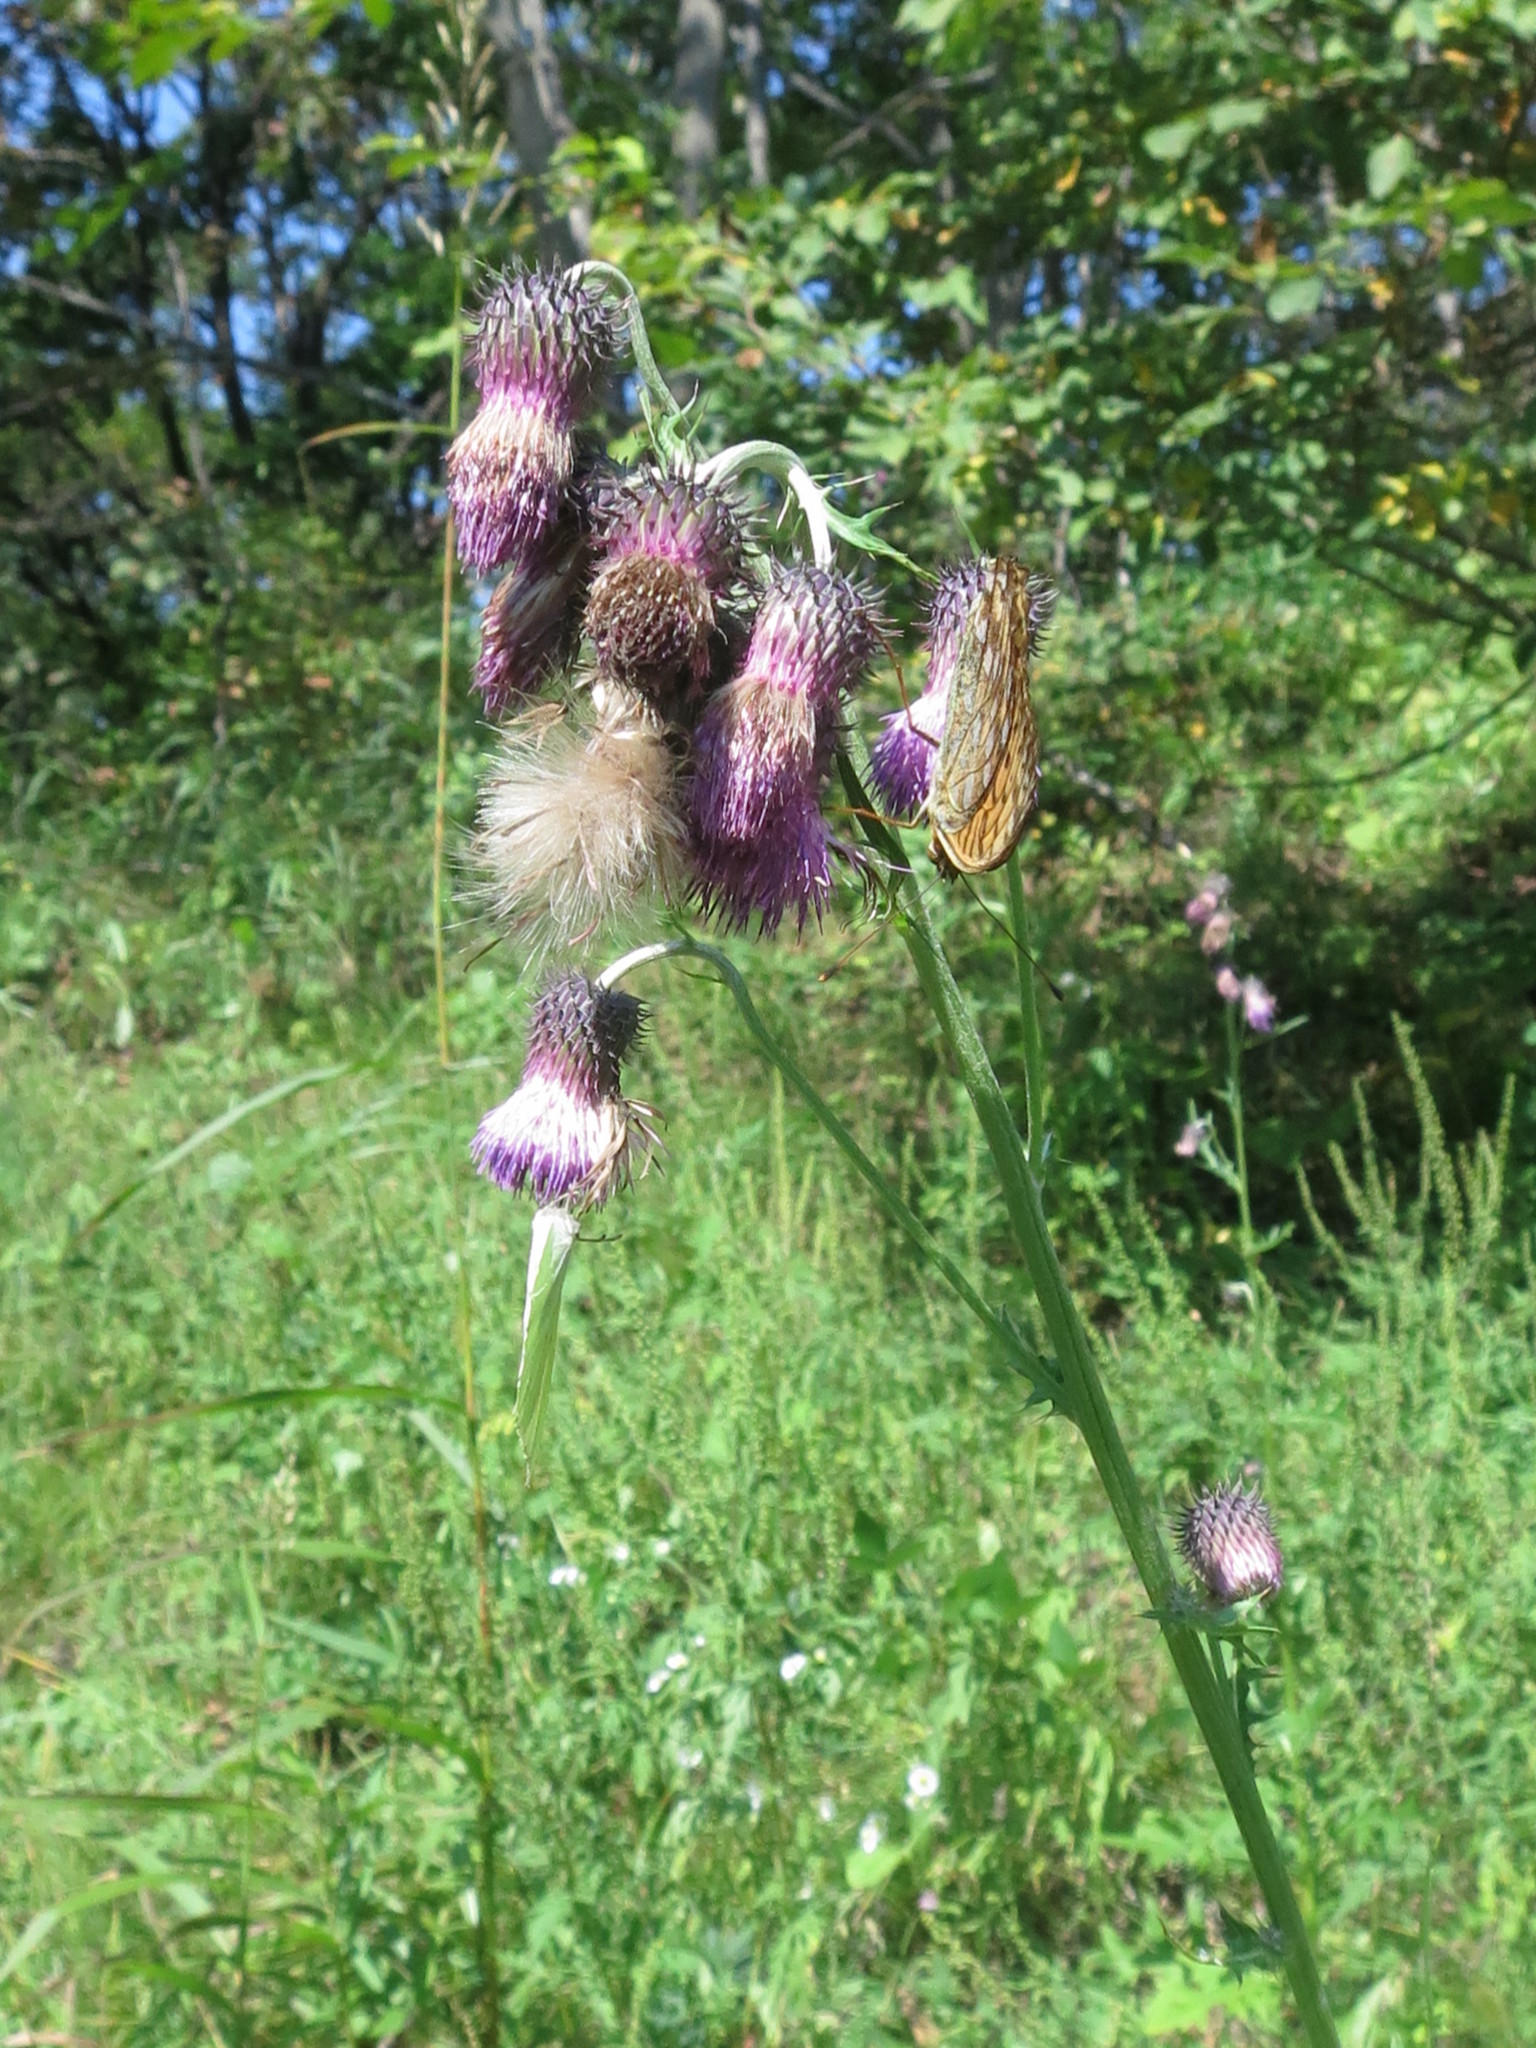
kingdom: Plantae
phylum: Tracheophyta
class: Magnoliopsida
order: Asterales
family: Asteraceae
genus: Cirsium
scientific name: Cirsium pendulum
